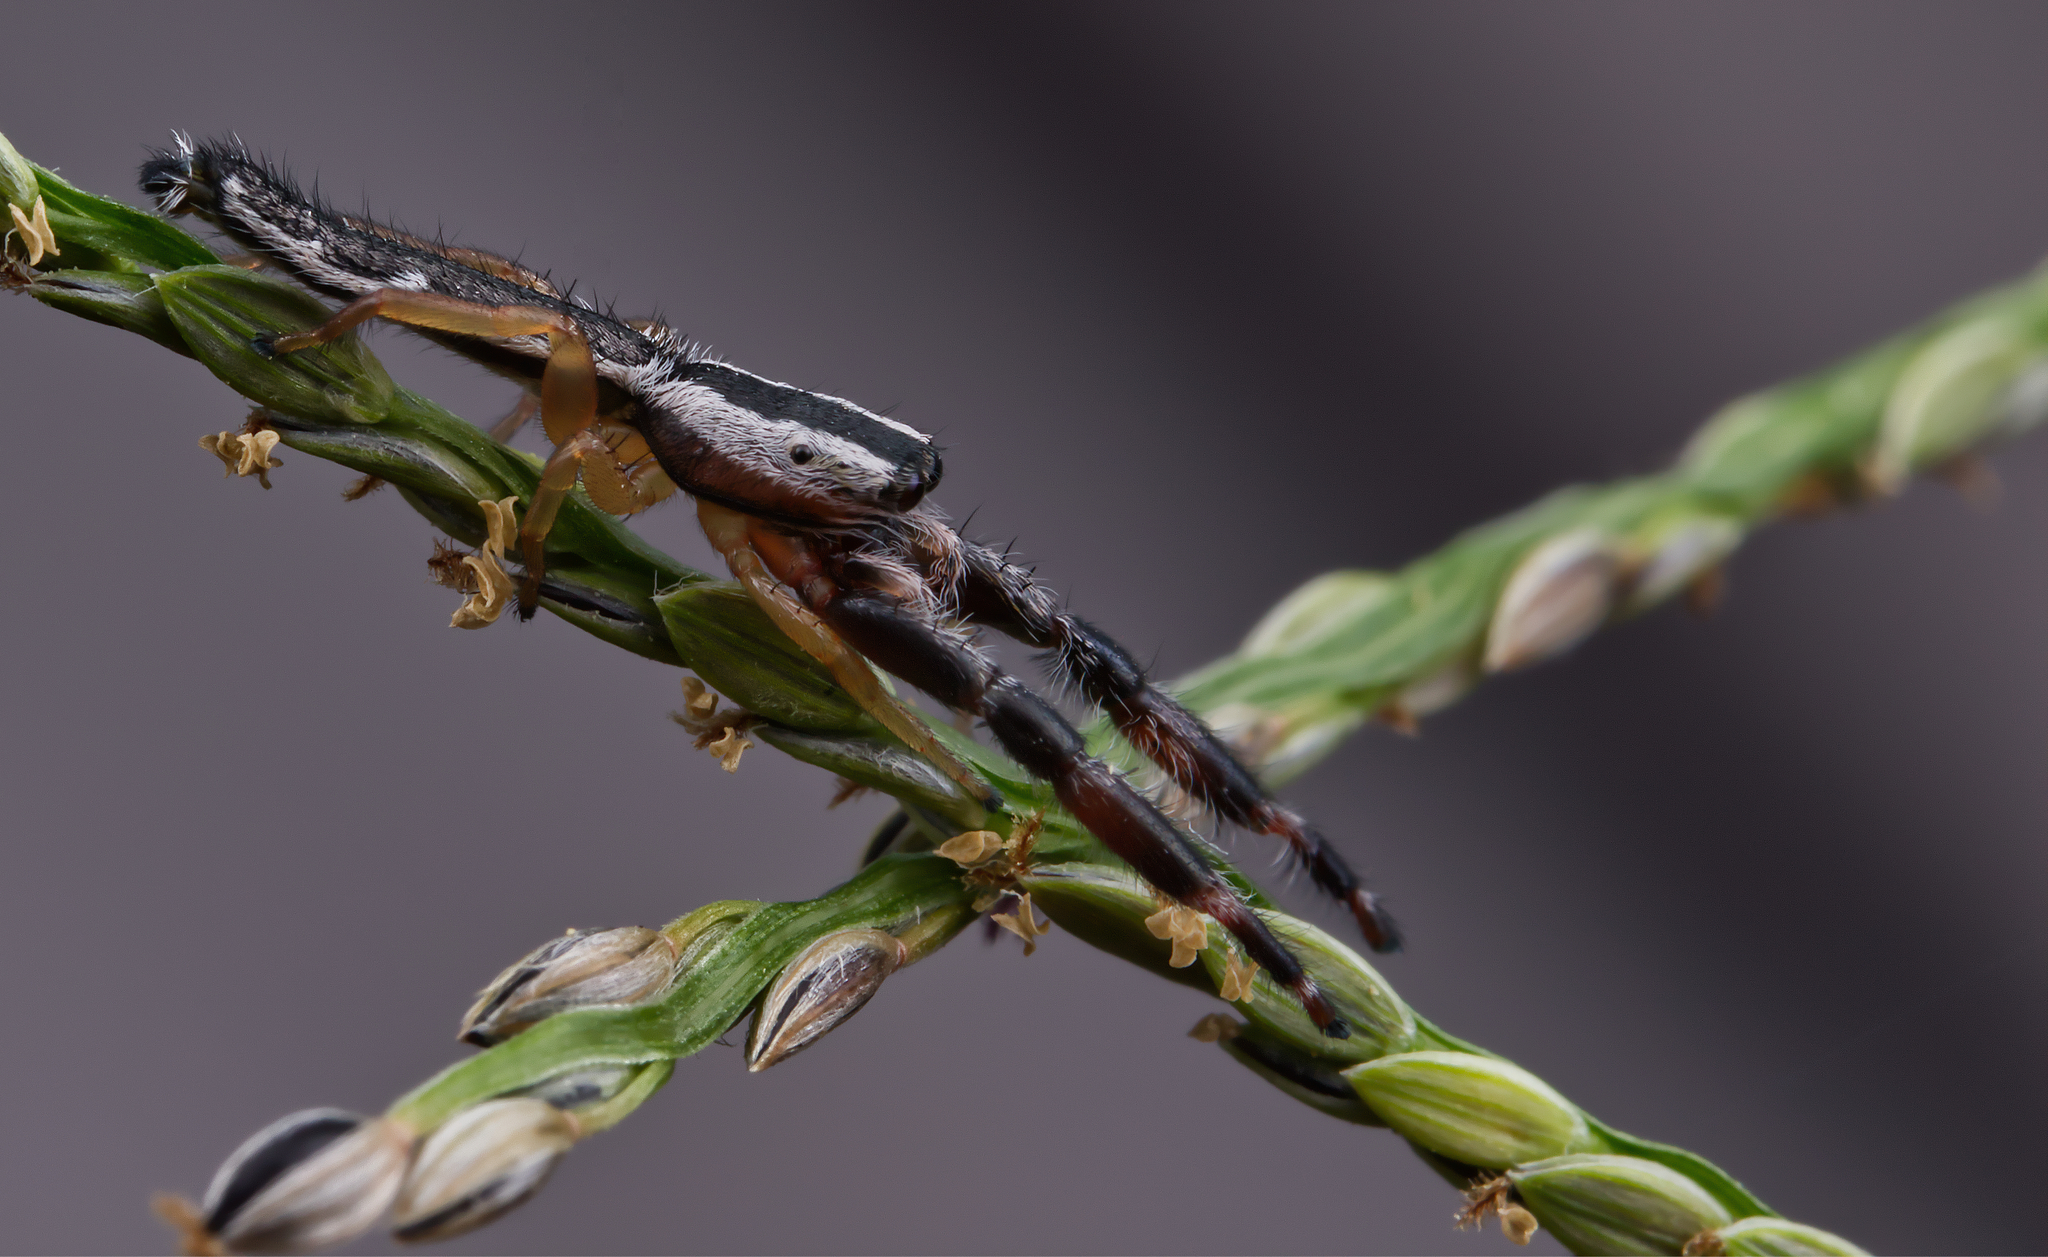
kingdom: Animalia
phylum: Arthropoda
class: Arachnida
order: Araneae
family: Salticidae
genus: Marpissa
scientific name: Marpissa pikei
